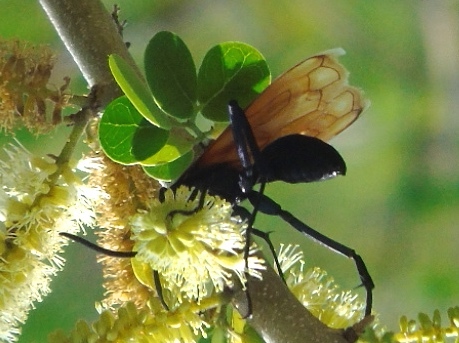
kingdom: Animalia
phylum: Arthropoda
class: Insecta
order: Hymenoptera
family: Pompilidae
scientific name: Pompilidae
